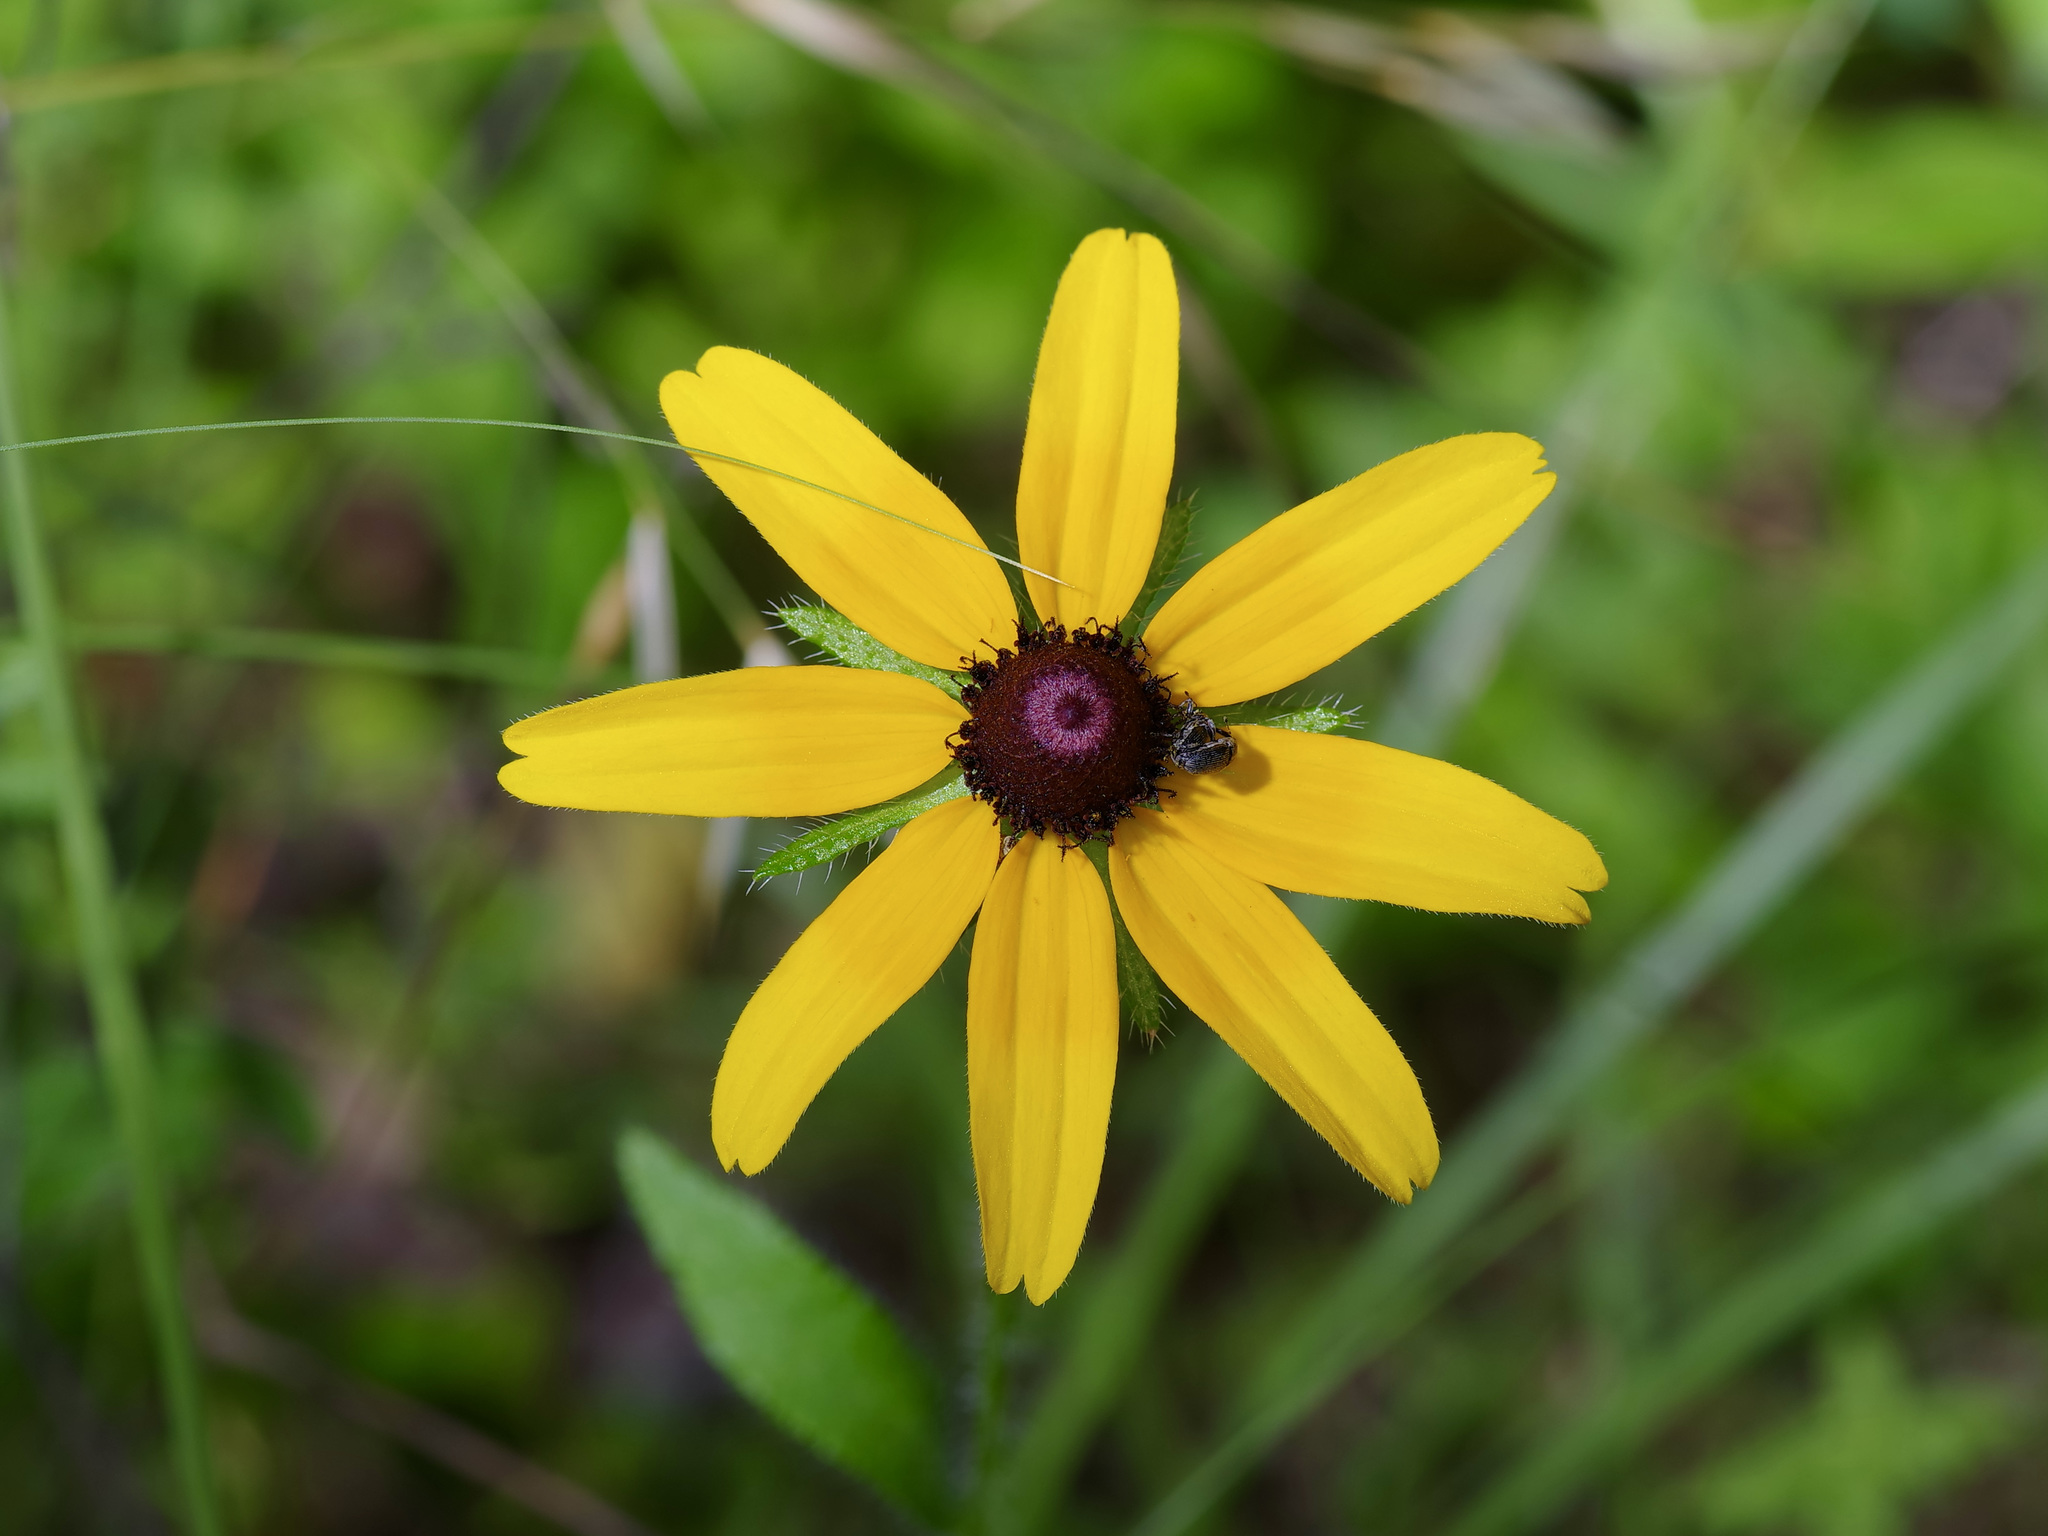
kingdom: Plantae
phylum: Tracheophyta
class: Magnoliopsida
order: Asterales
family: Asteraceae
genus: Rudbeckia
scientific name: Rudbeckia hirta
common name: Black-eyed-susan
